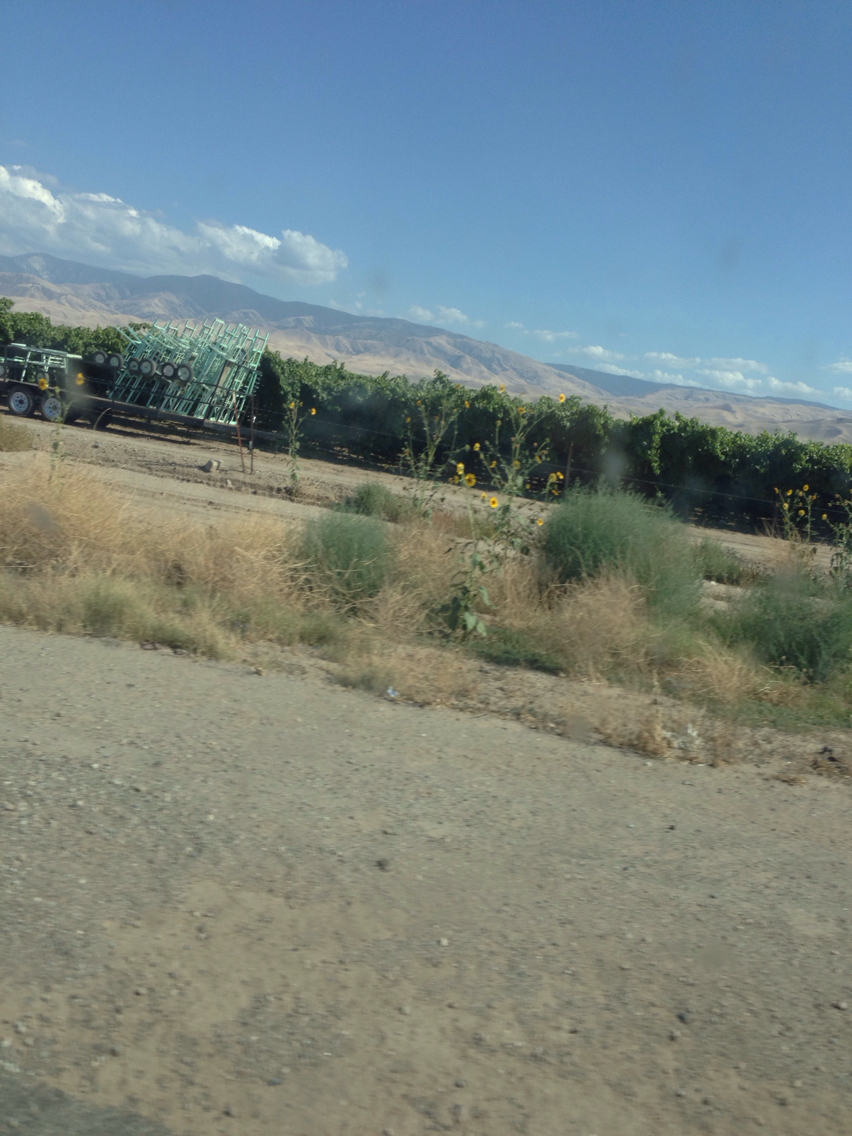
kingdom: Plantae
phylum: Tracheophyta
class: Magnoliopsida
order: Caryophyllales
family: Amaranthaceae
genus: Salsola
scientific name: Salsola tragus
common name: Prickly russian thistle
